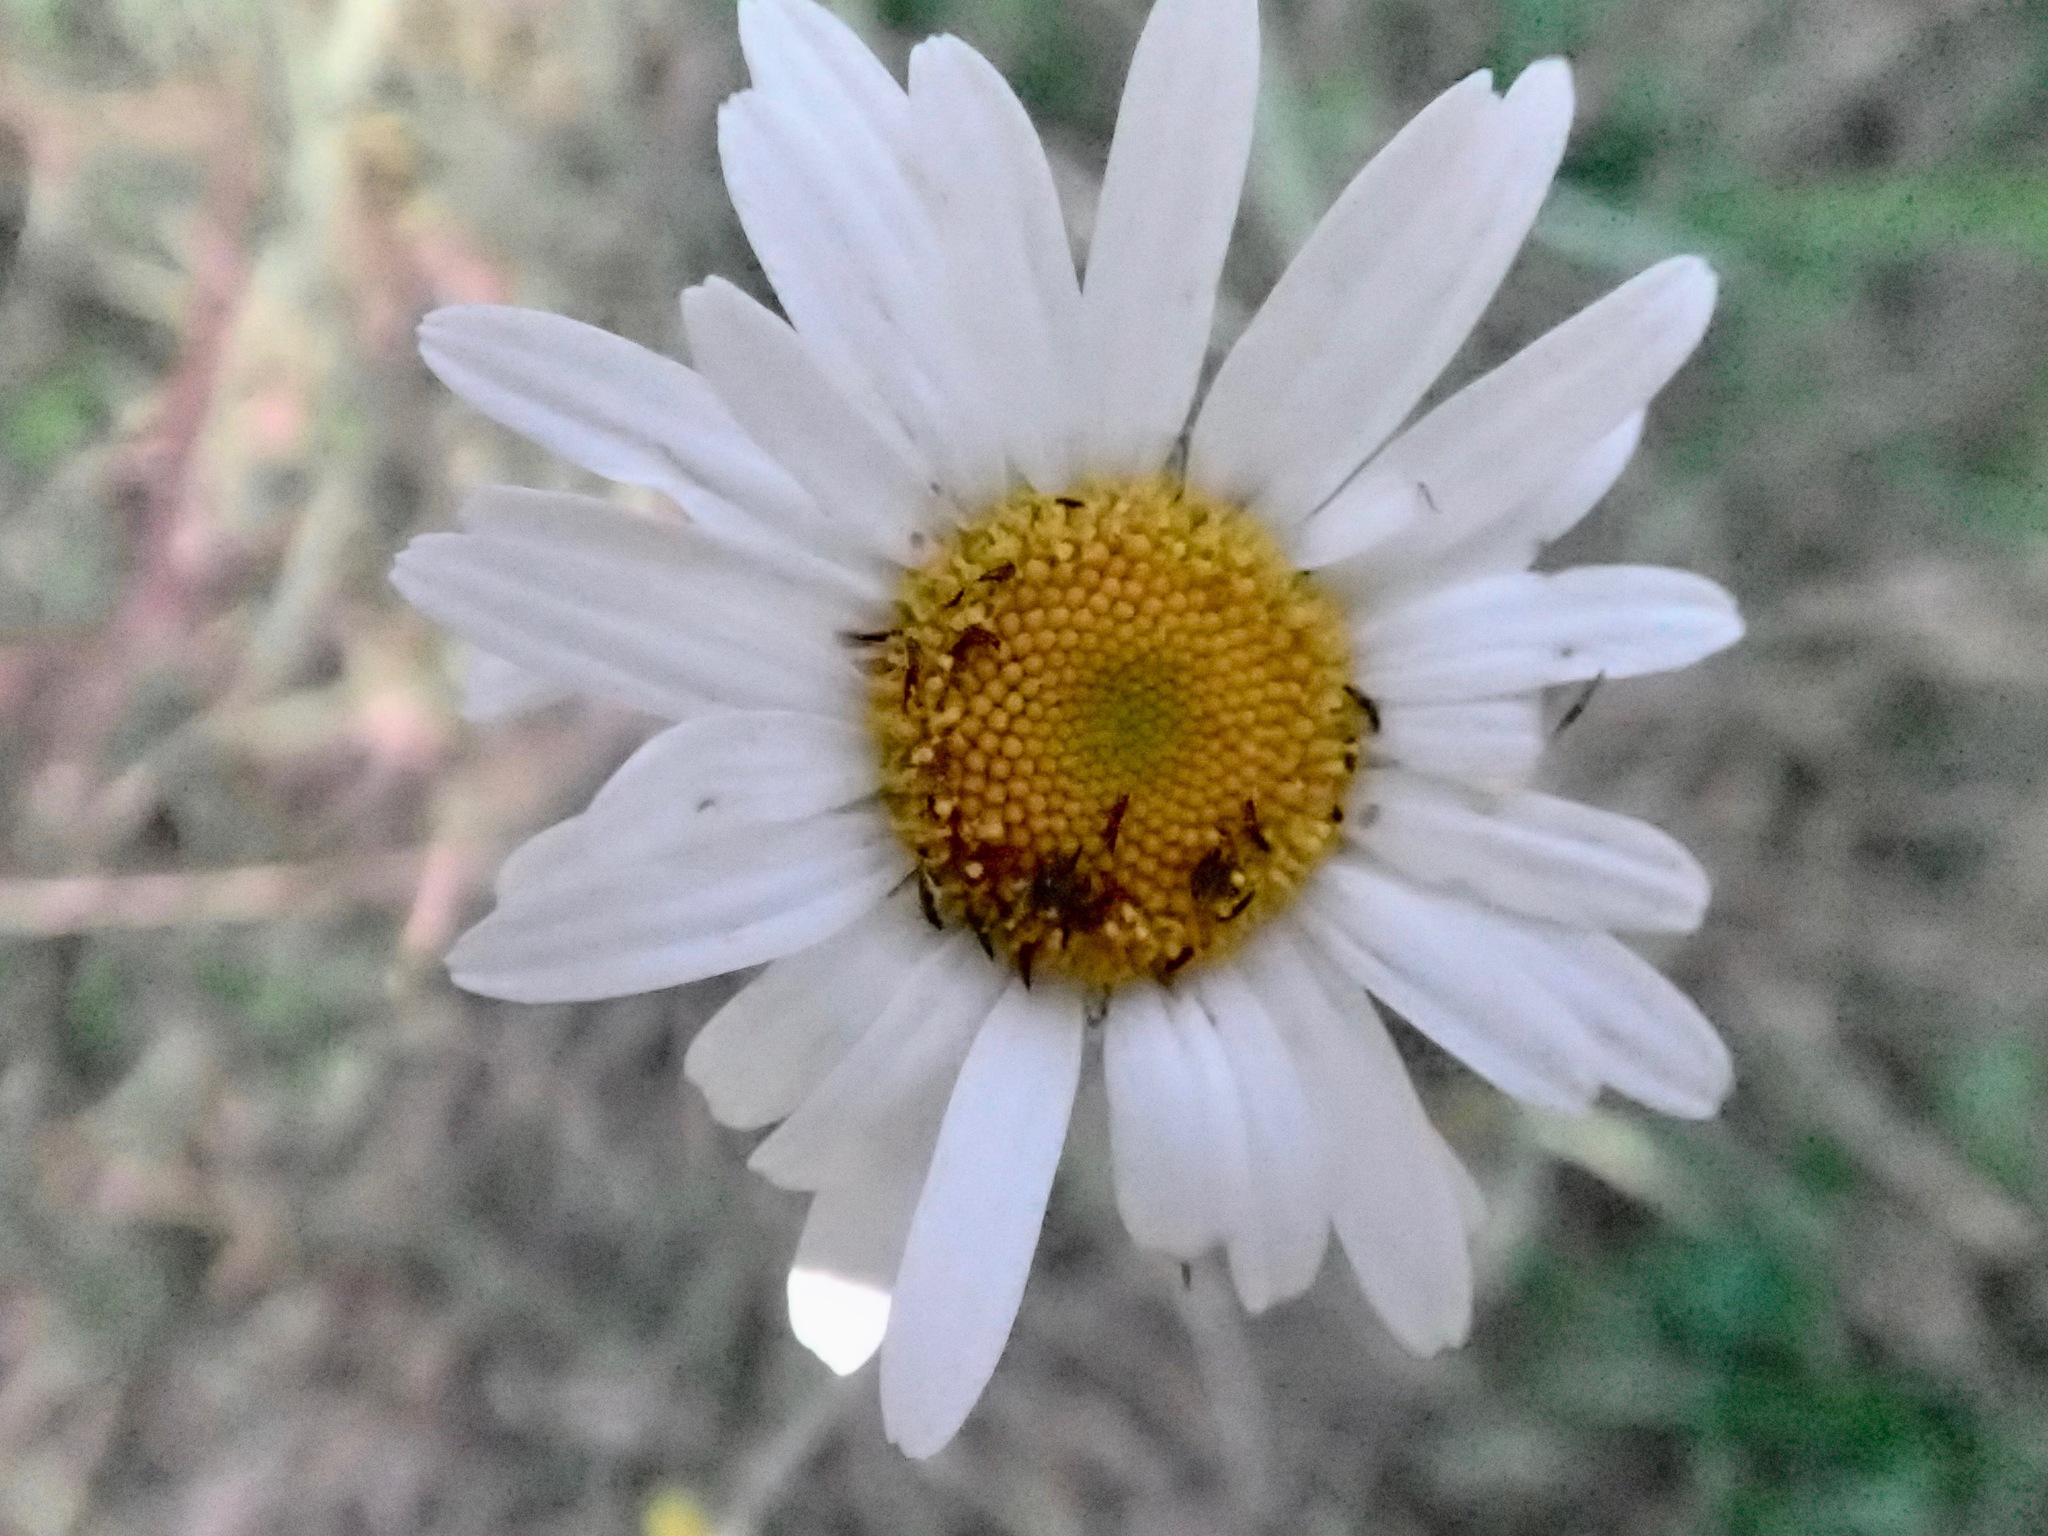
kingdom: Plantae
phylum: Tracheophyta
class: Magnoliopsida
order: Asterales
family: Asteraceae
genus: Leucanthemum
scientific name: Leucanthemum vulgare
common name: Oxeye daisy
